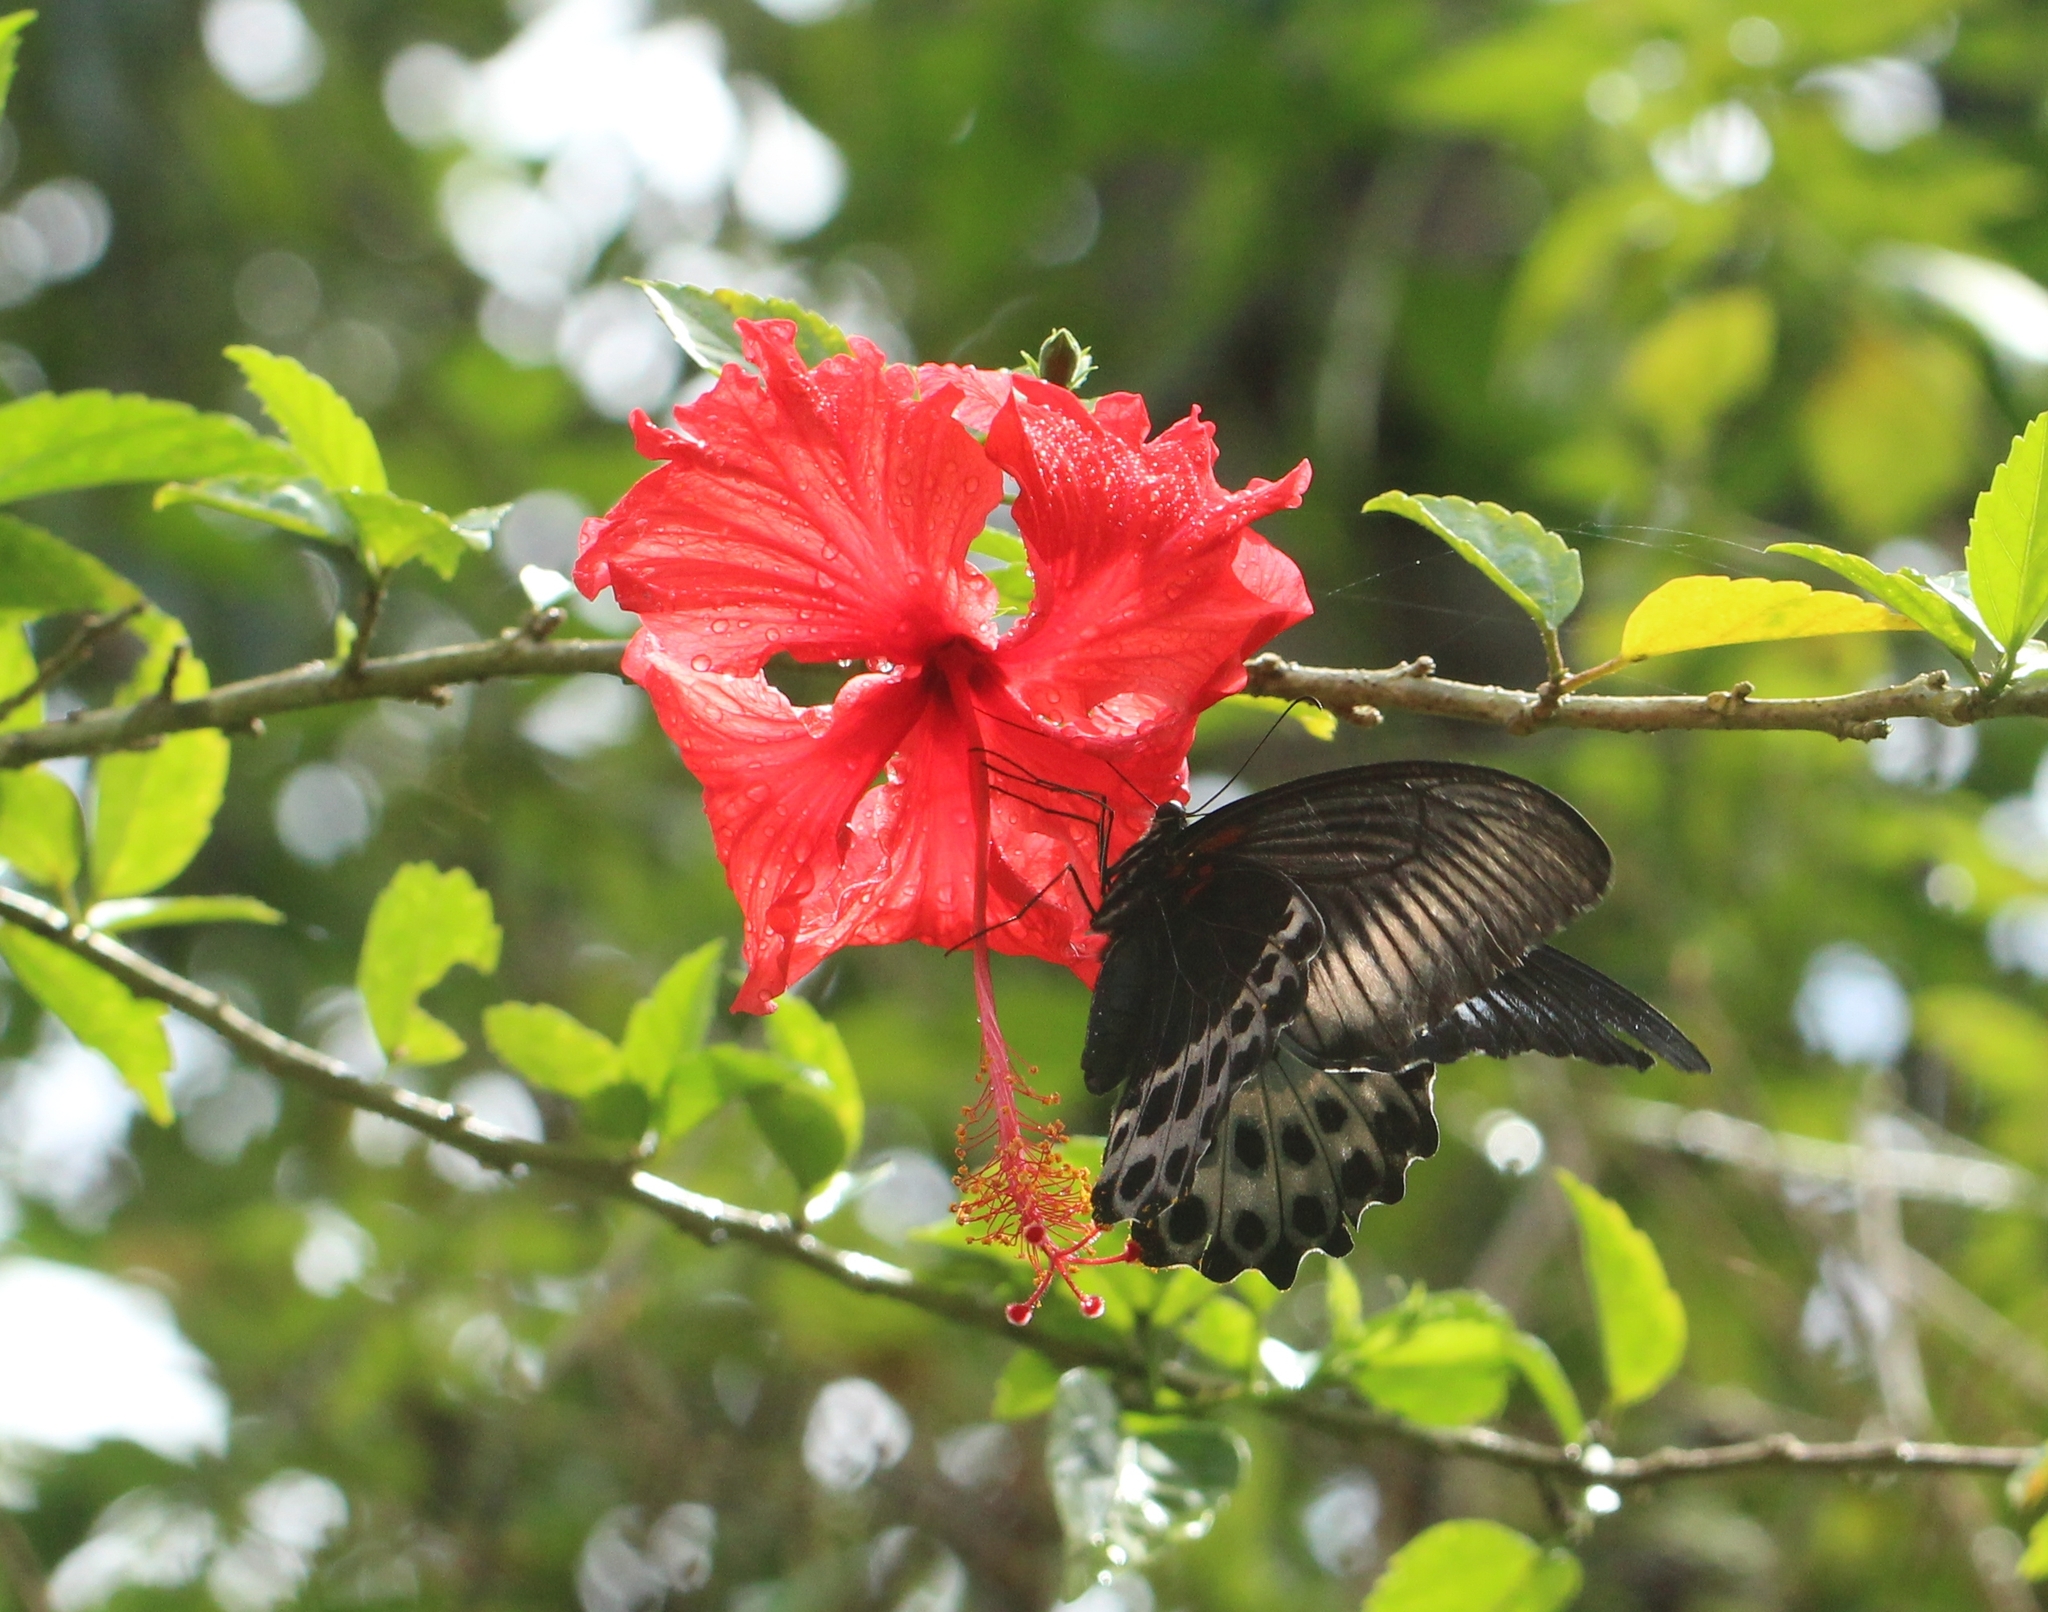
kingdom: Animalia
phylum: Arthropoda
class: Insecta
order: Lepidoptera
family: Papilionidae
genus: Papilio
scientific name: Papilio memnon
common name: Great mormon
